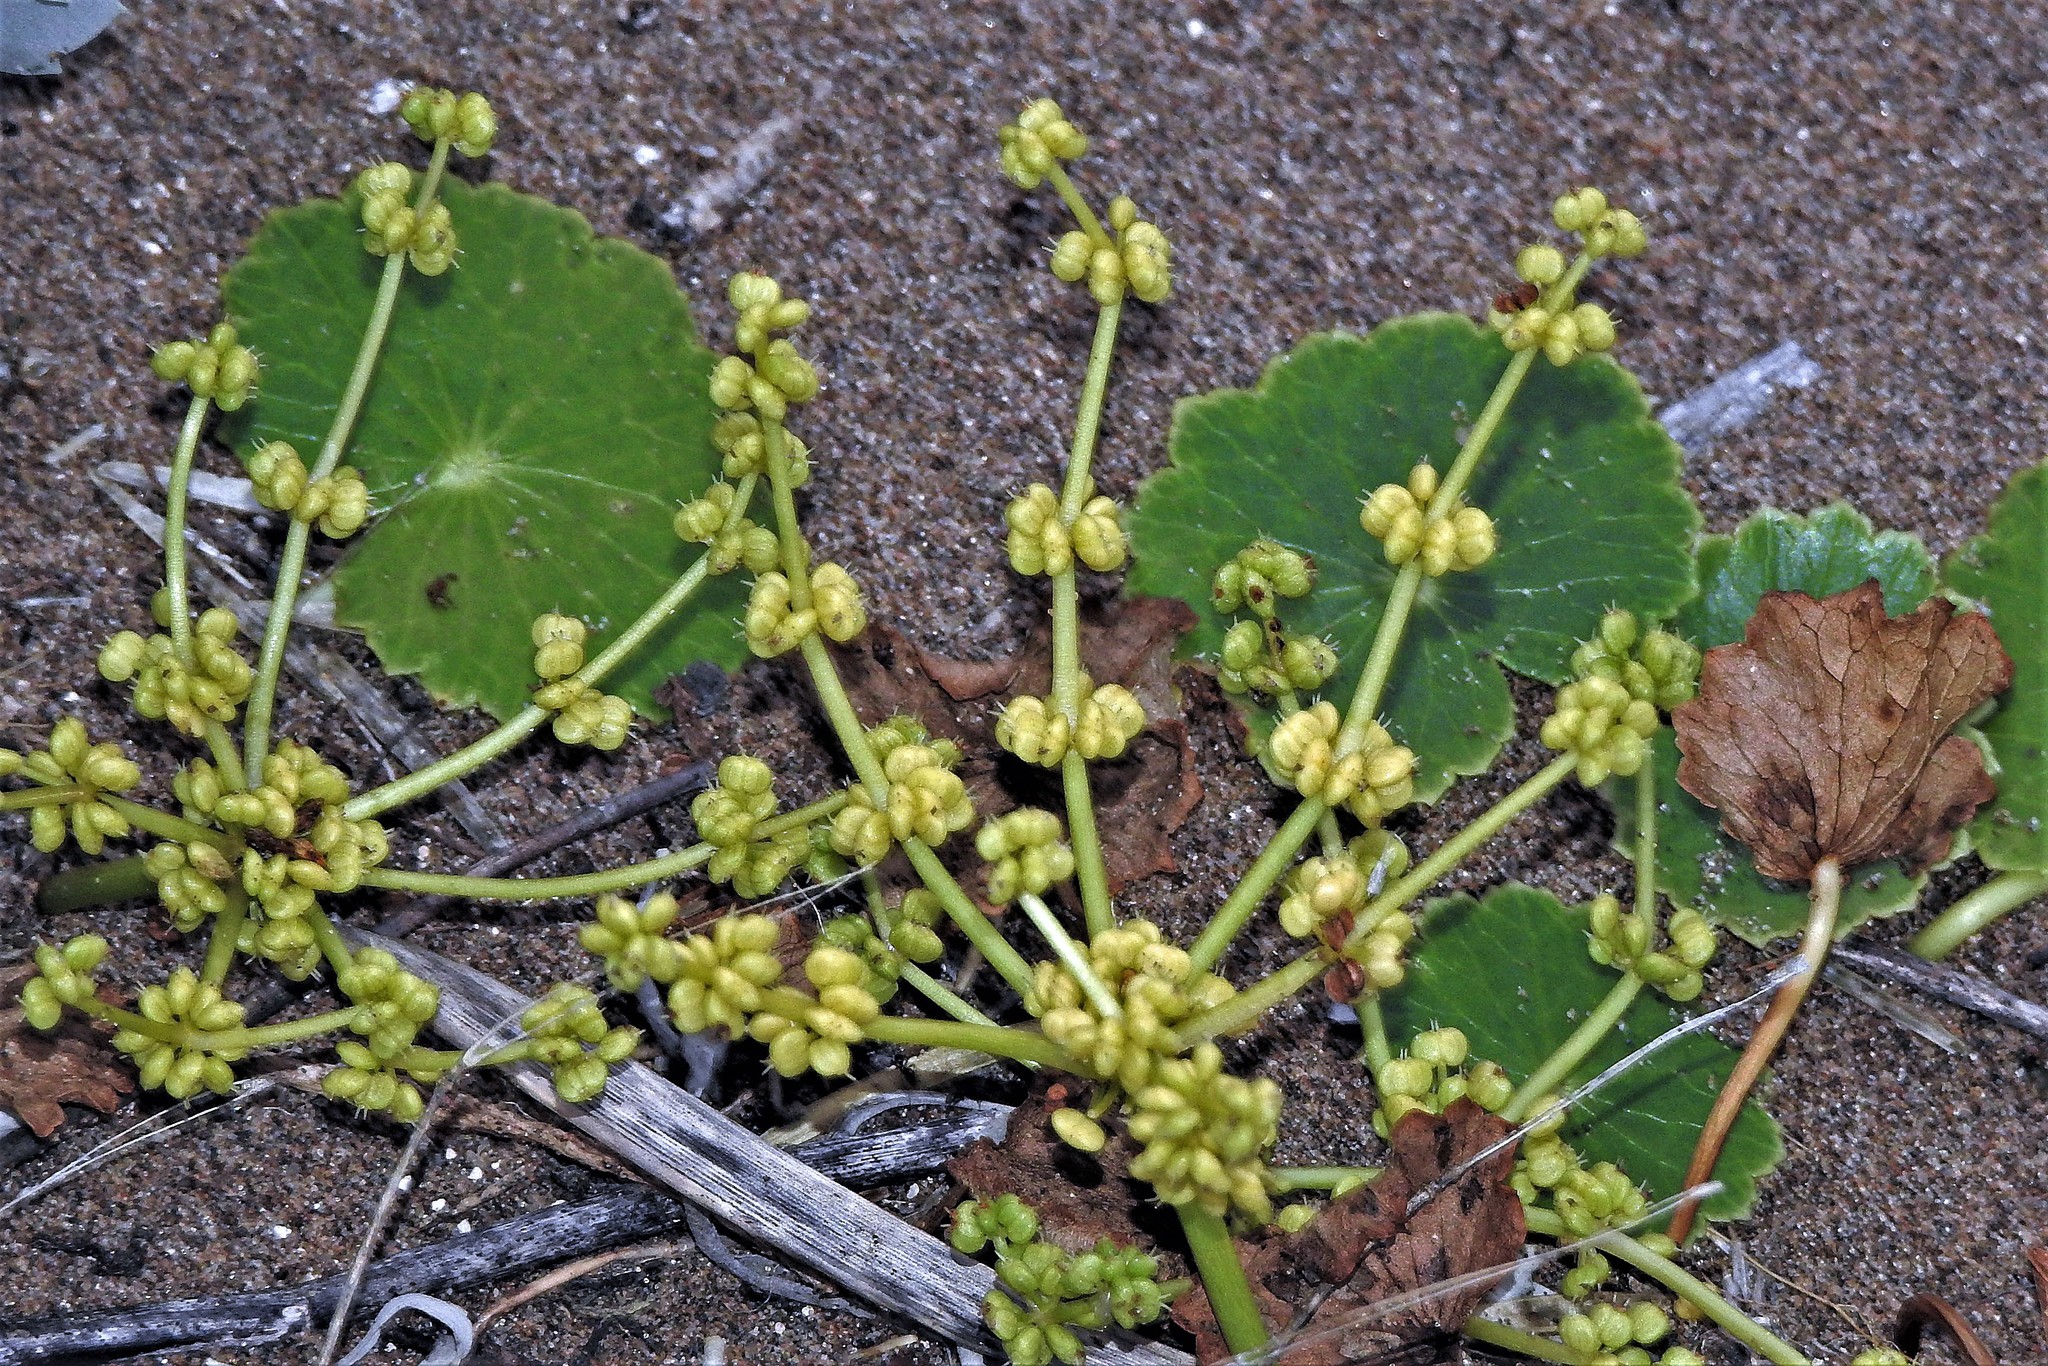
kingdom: Plantae
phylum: Tracheophyta
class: Magnoliopsida
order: Apiales
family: Araliaceae
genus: Hydrocotyle
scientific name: Hydrocotyle bonariensis
